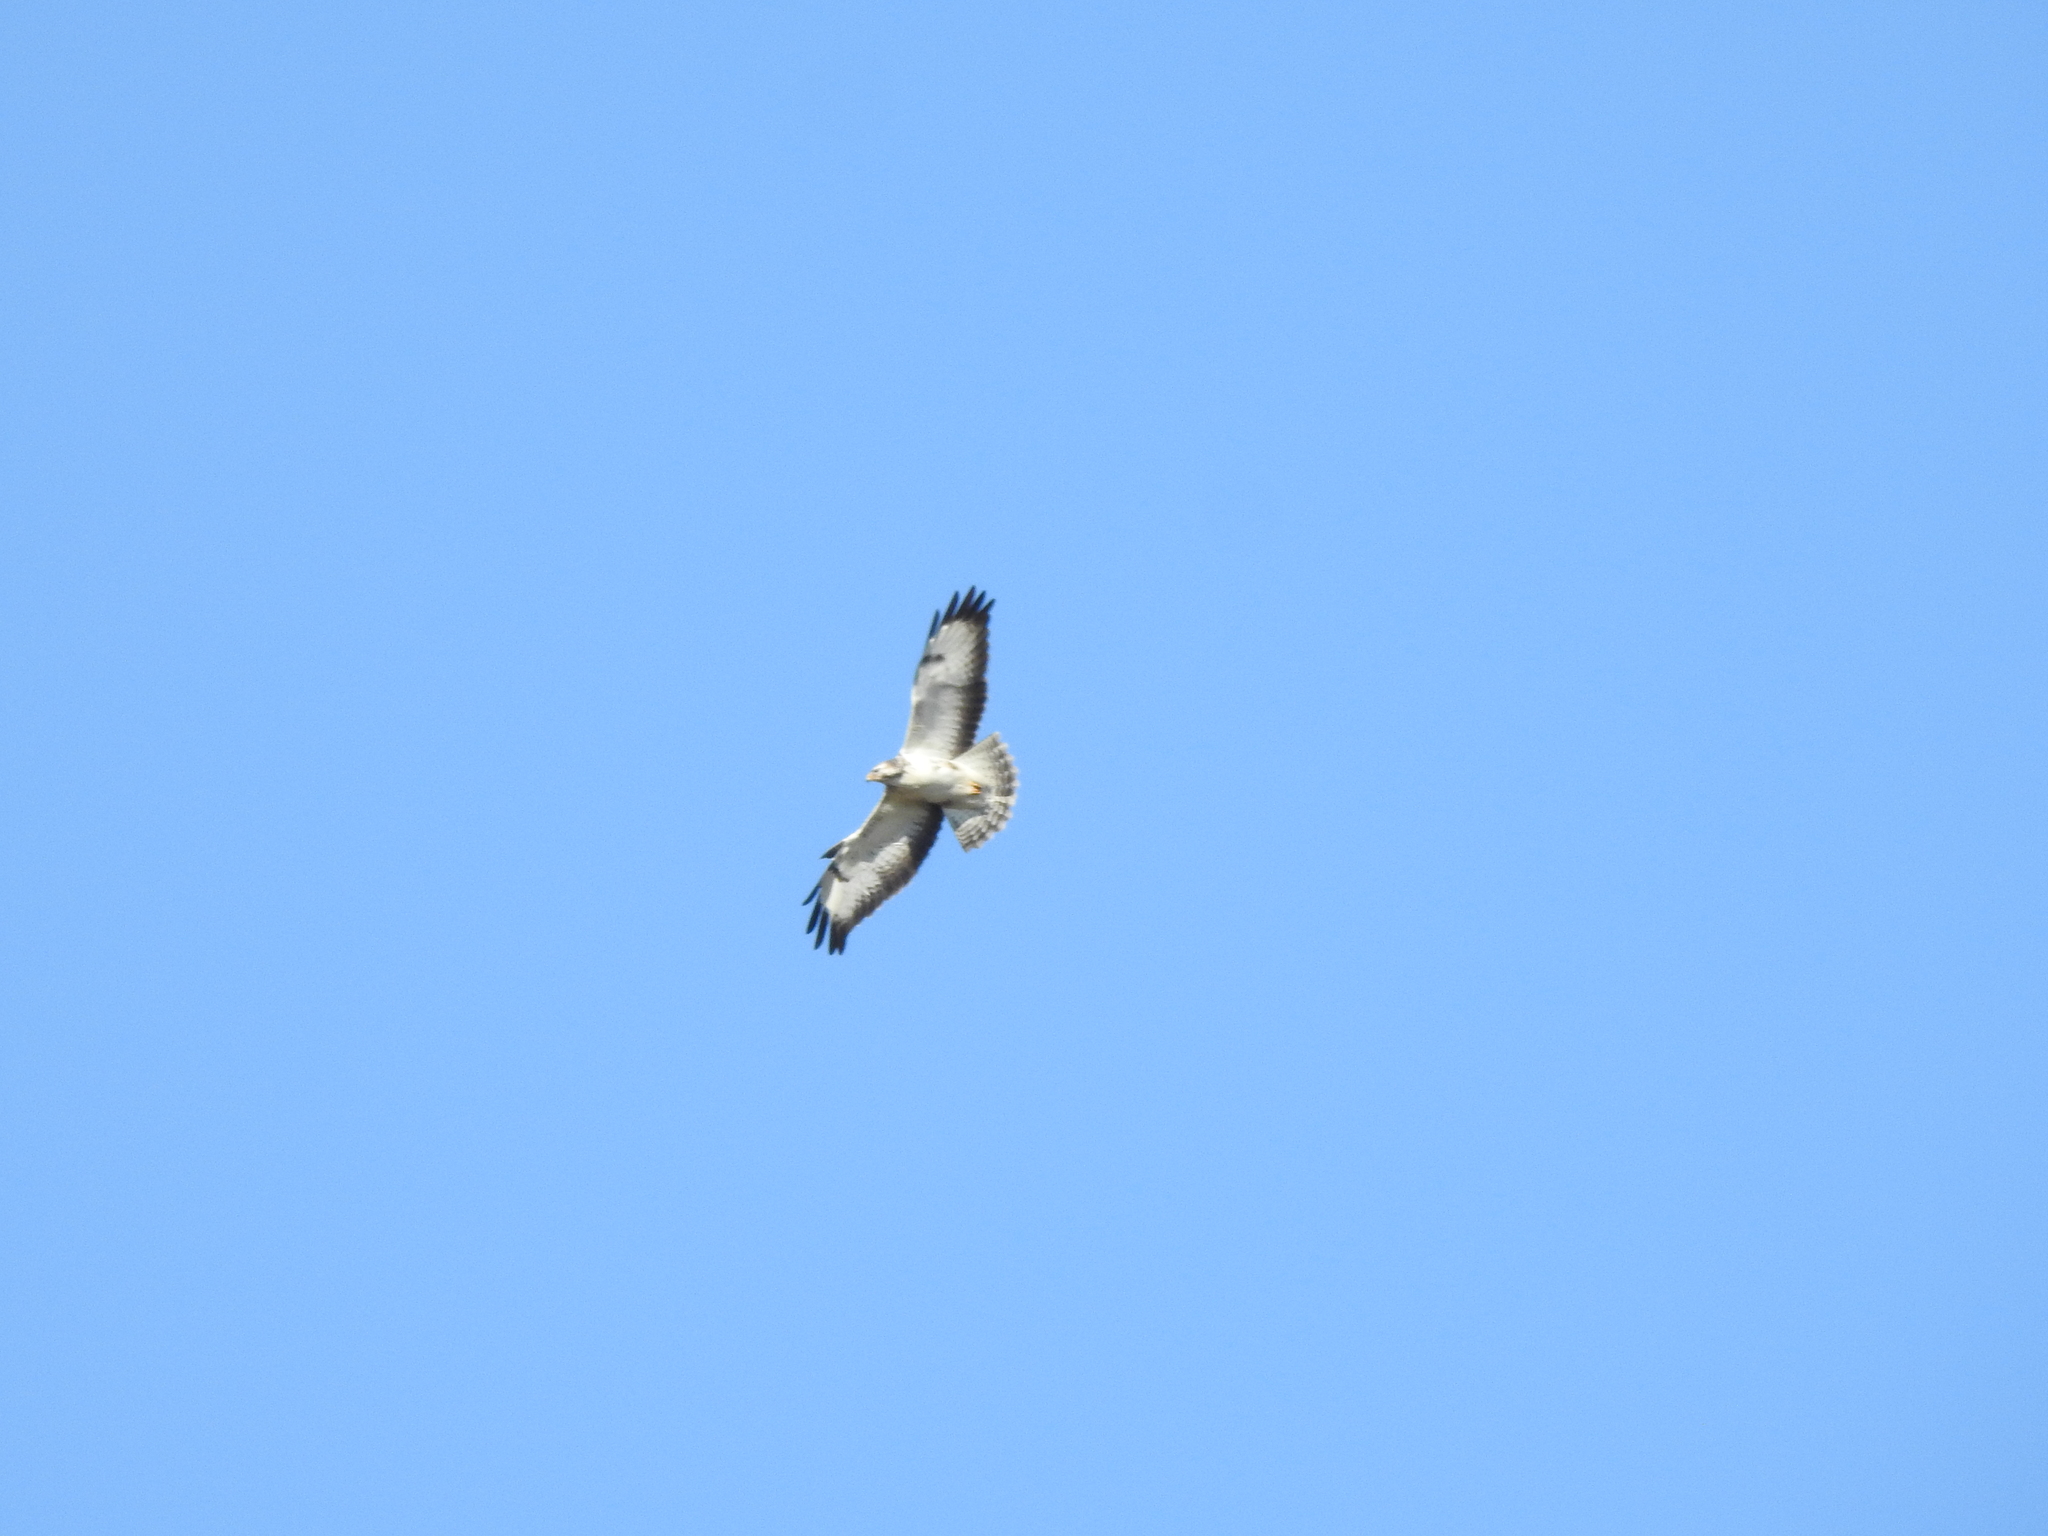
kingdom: Animalia
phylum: Chordata
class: Aves
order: Accipitriformes
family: Accipitridae
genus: Buteo
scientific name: Buteo buteo
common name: Common buzzard
